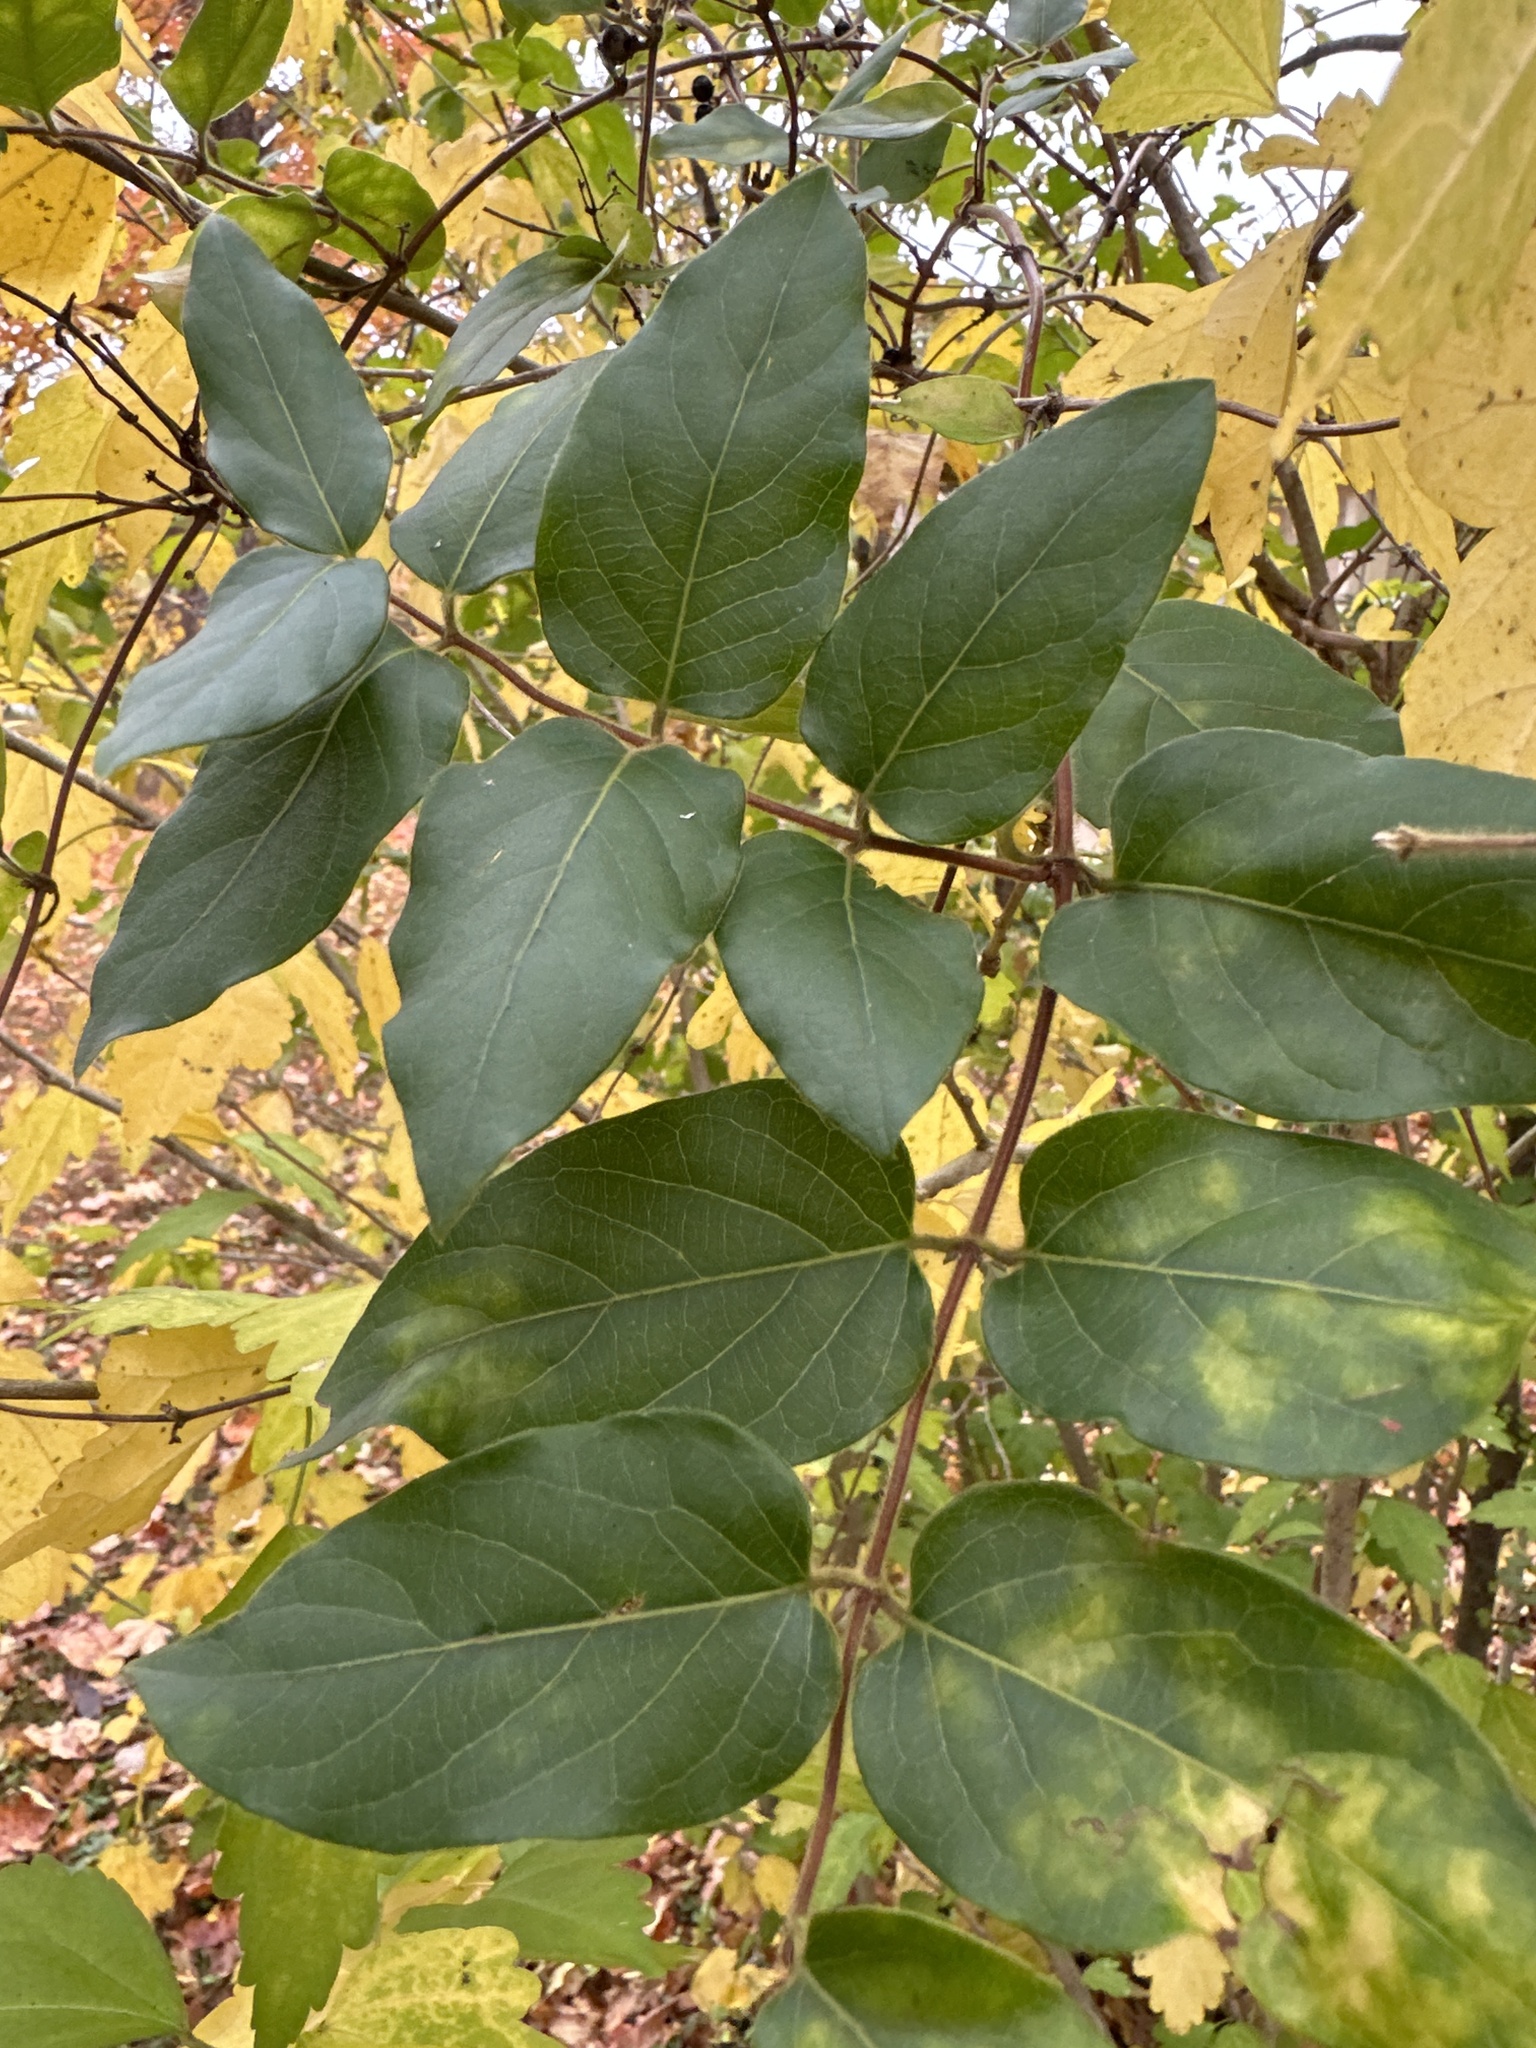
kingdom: Plantae
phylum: Tracheophyta
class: Magnoliopsida
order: Dipsacales
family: Caprifoliaceae
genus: Lonicera
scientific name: Lonicera japonica
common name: Japanese honeysuckle
